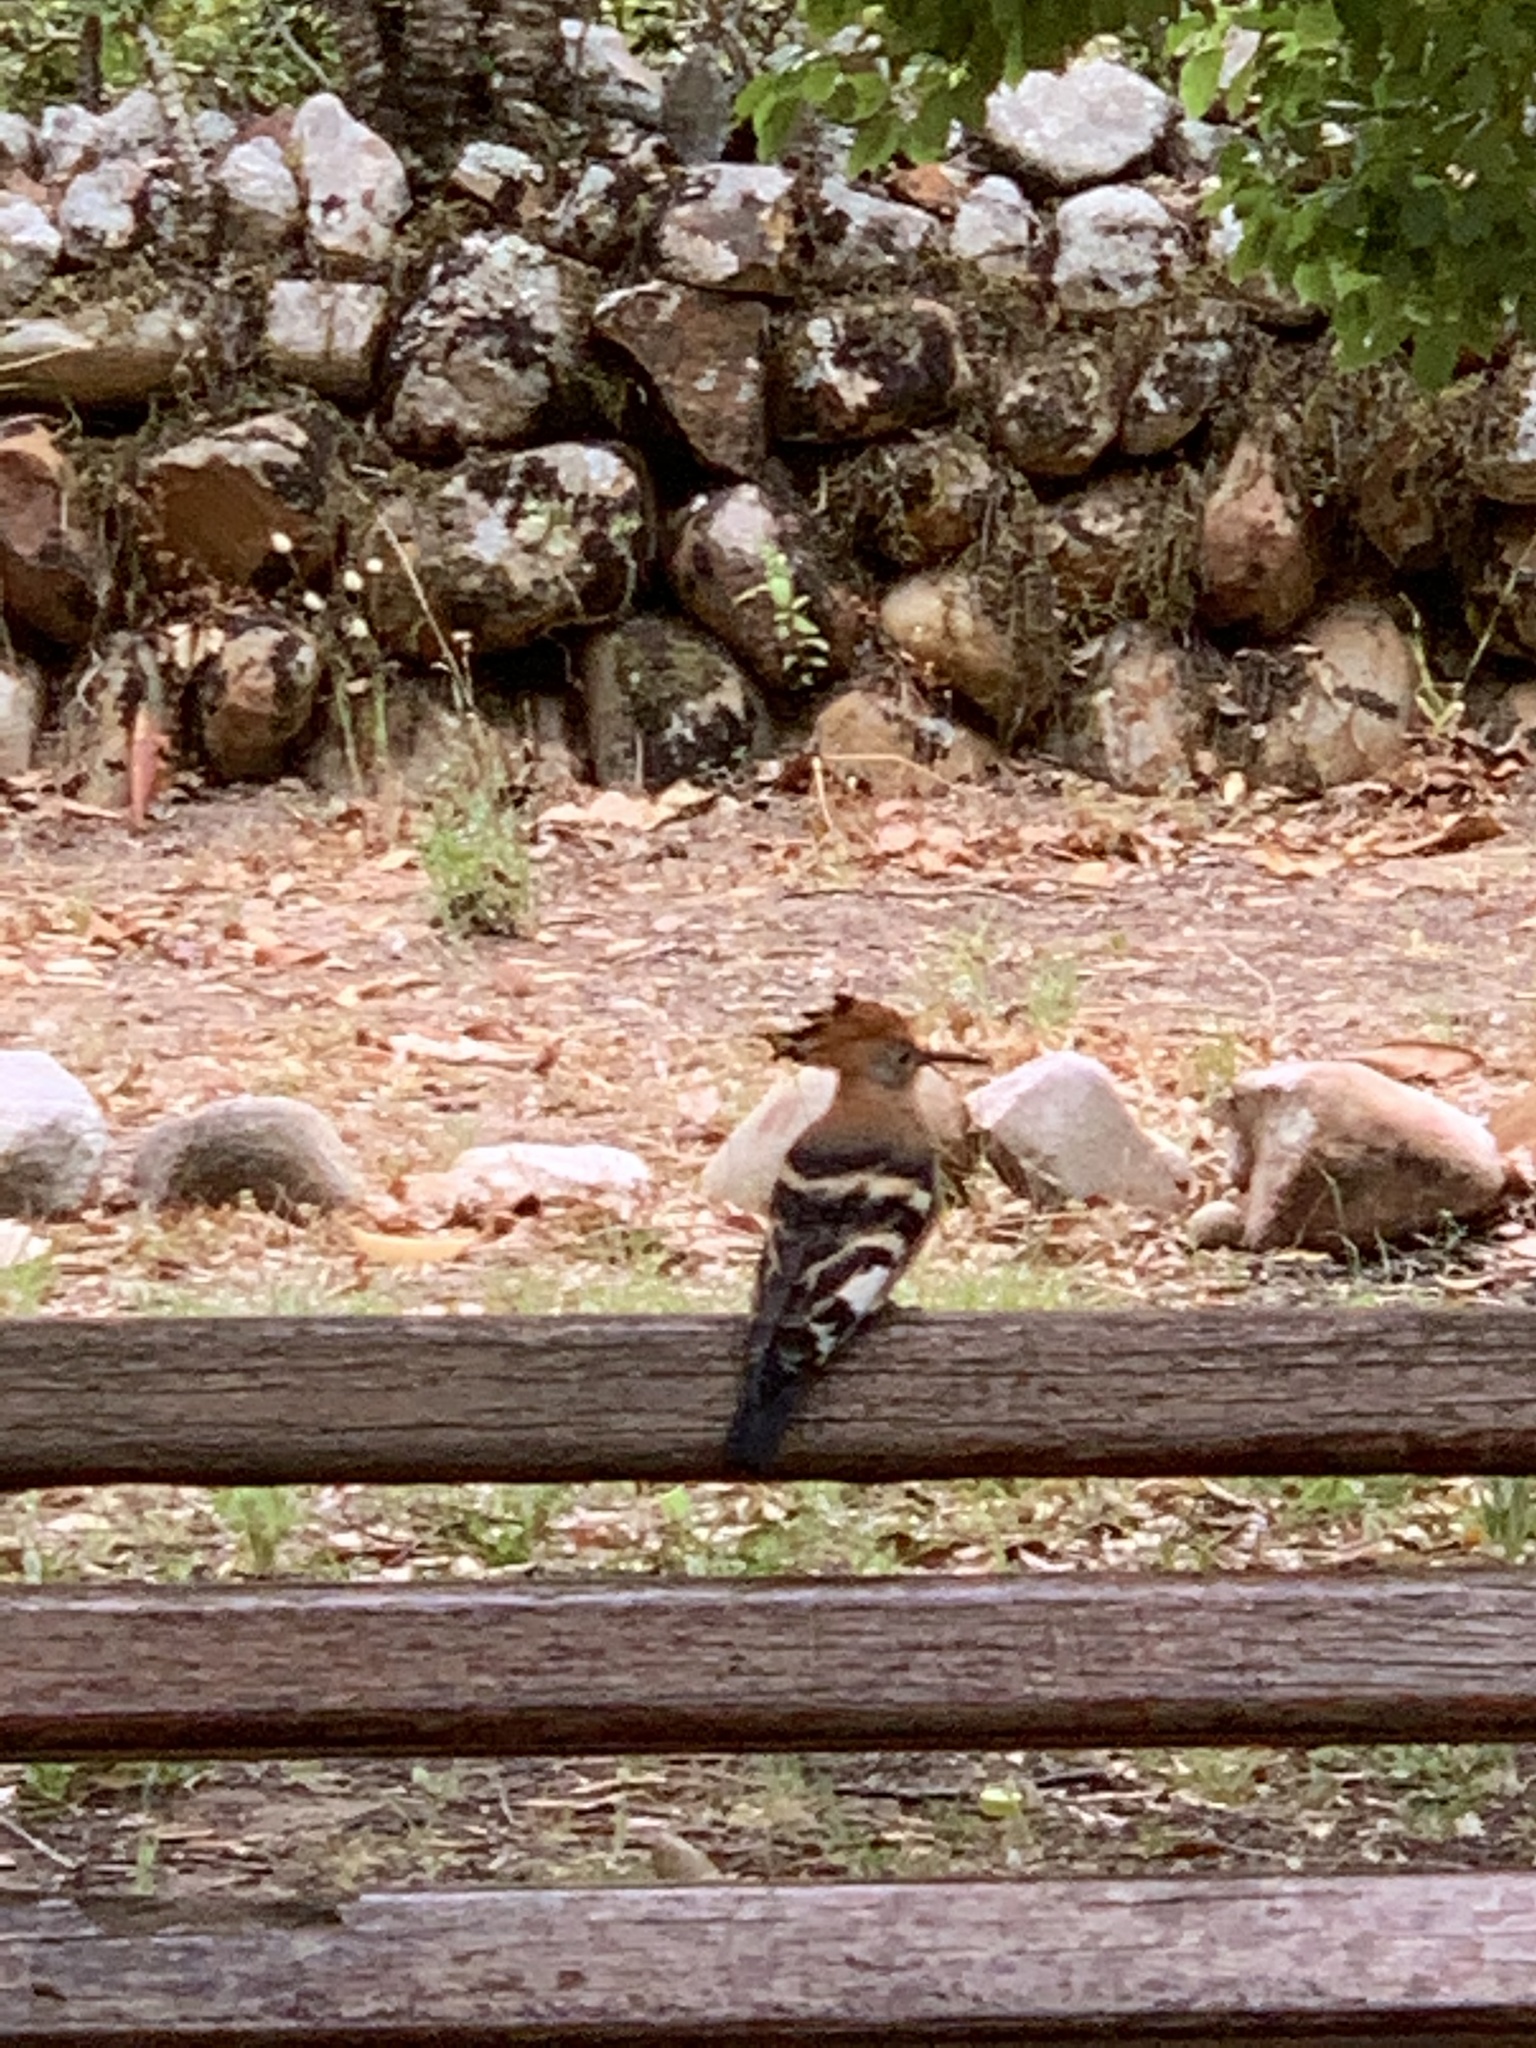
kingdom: Animalia
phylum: Chordata
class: Aves
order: Bucerotiformes
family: Upupidae
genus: Upupa
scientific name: Upupa africana
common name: African hoopoe
